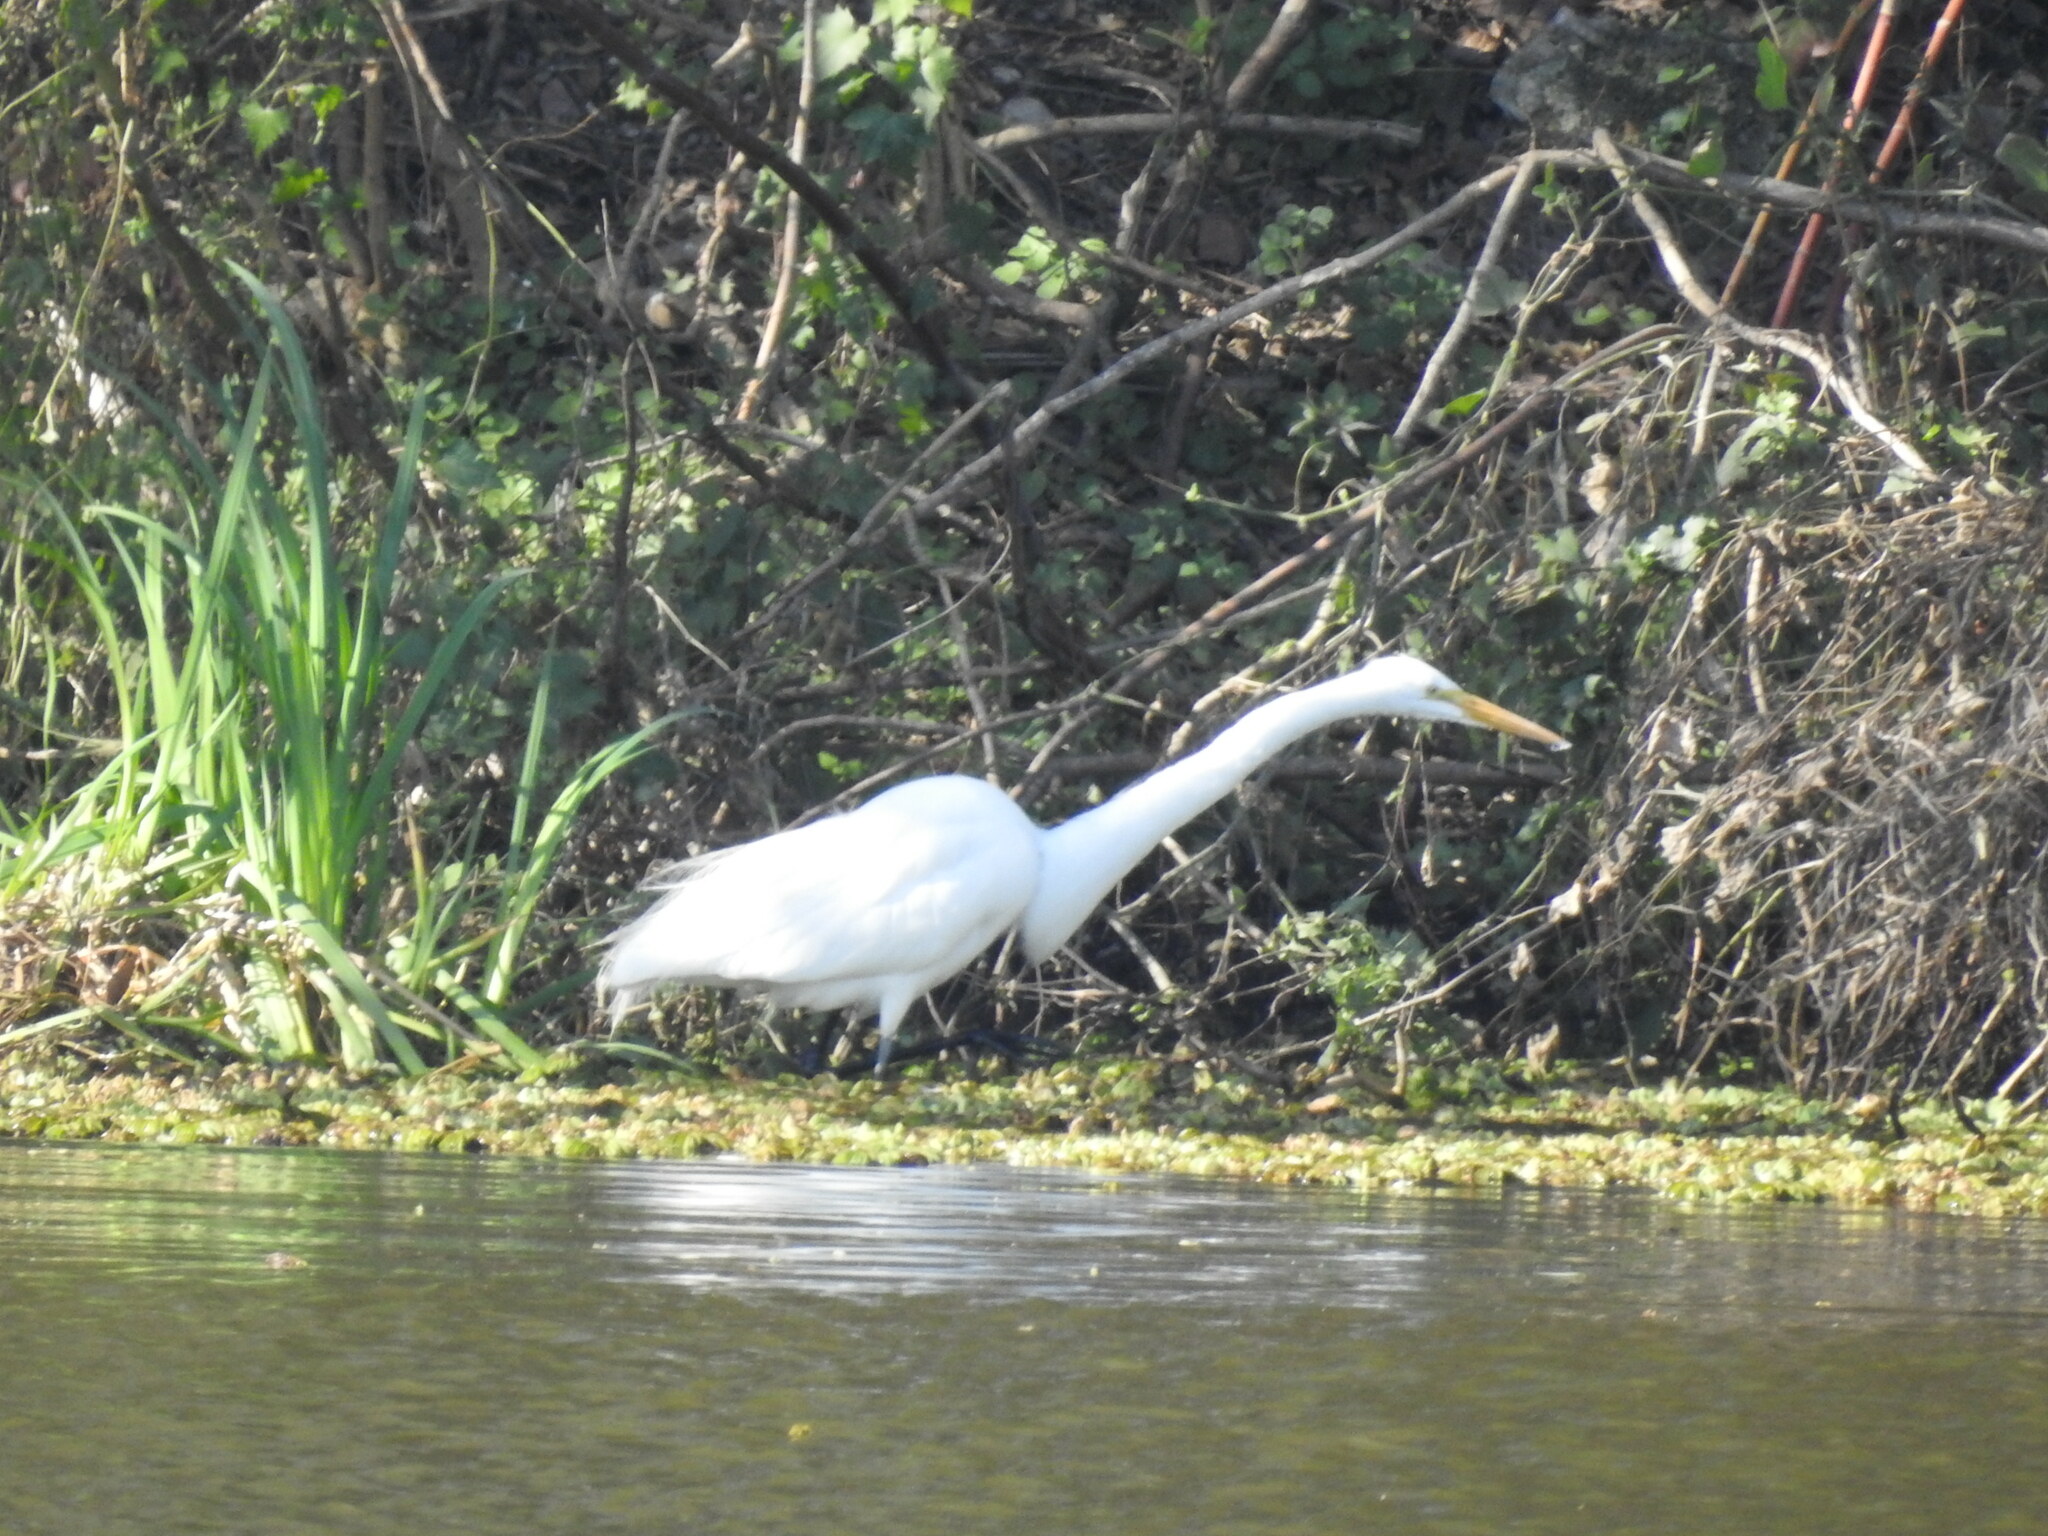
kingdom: Animalia
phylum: Chordata
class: Aves
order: Pelecaniformes
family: Ardeidae
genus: Ardea
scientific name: Ardea alba
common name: Great egret
